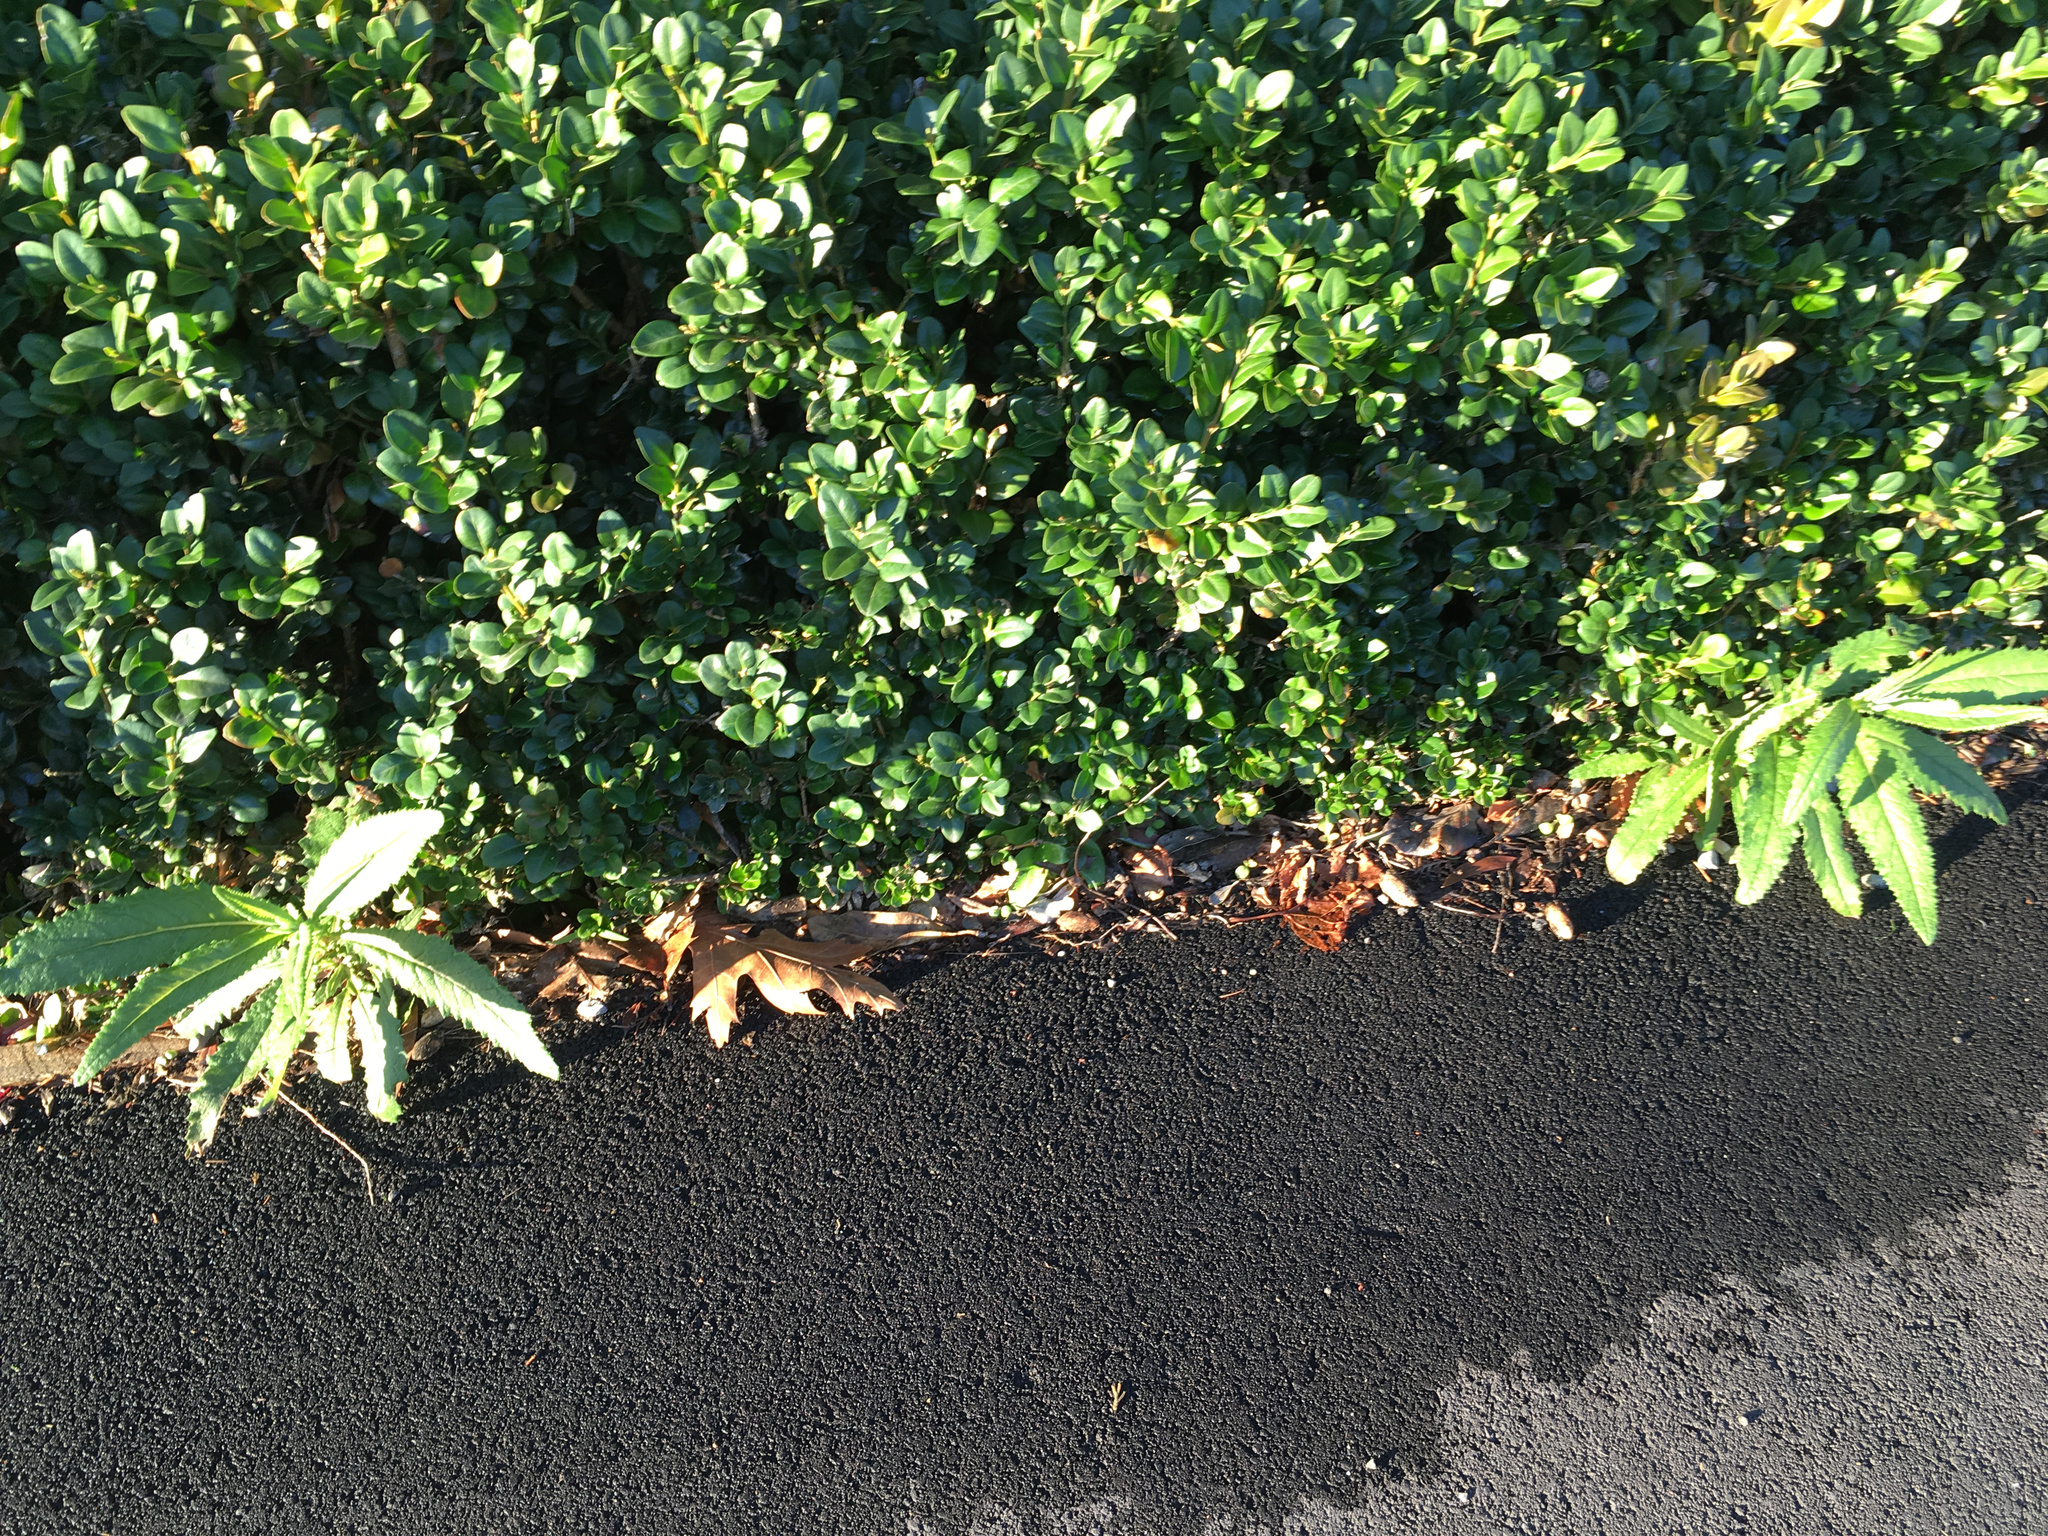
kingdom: Plantae
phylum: Tracheophyta
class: Magnoliopsida
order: Asterales
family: Asteraceae
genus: Senecio
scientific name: Senecio minimus
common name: Toothed fireweed
